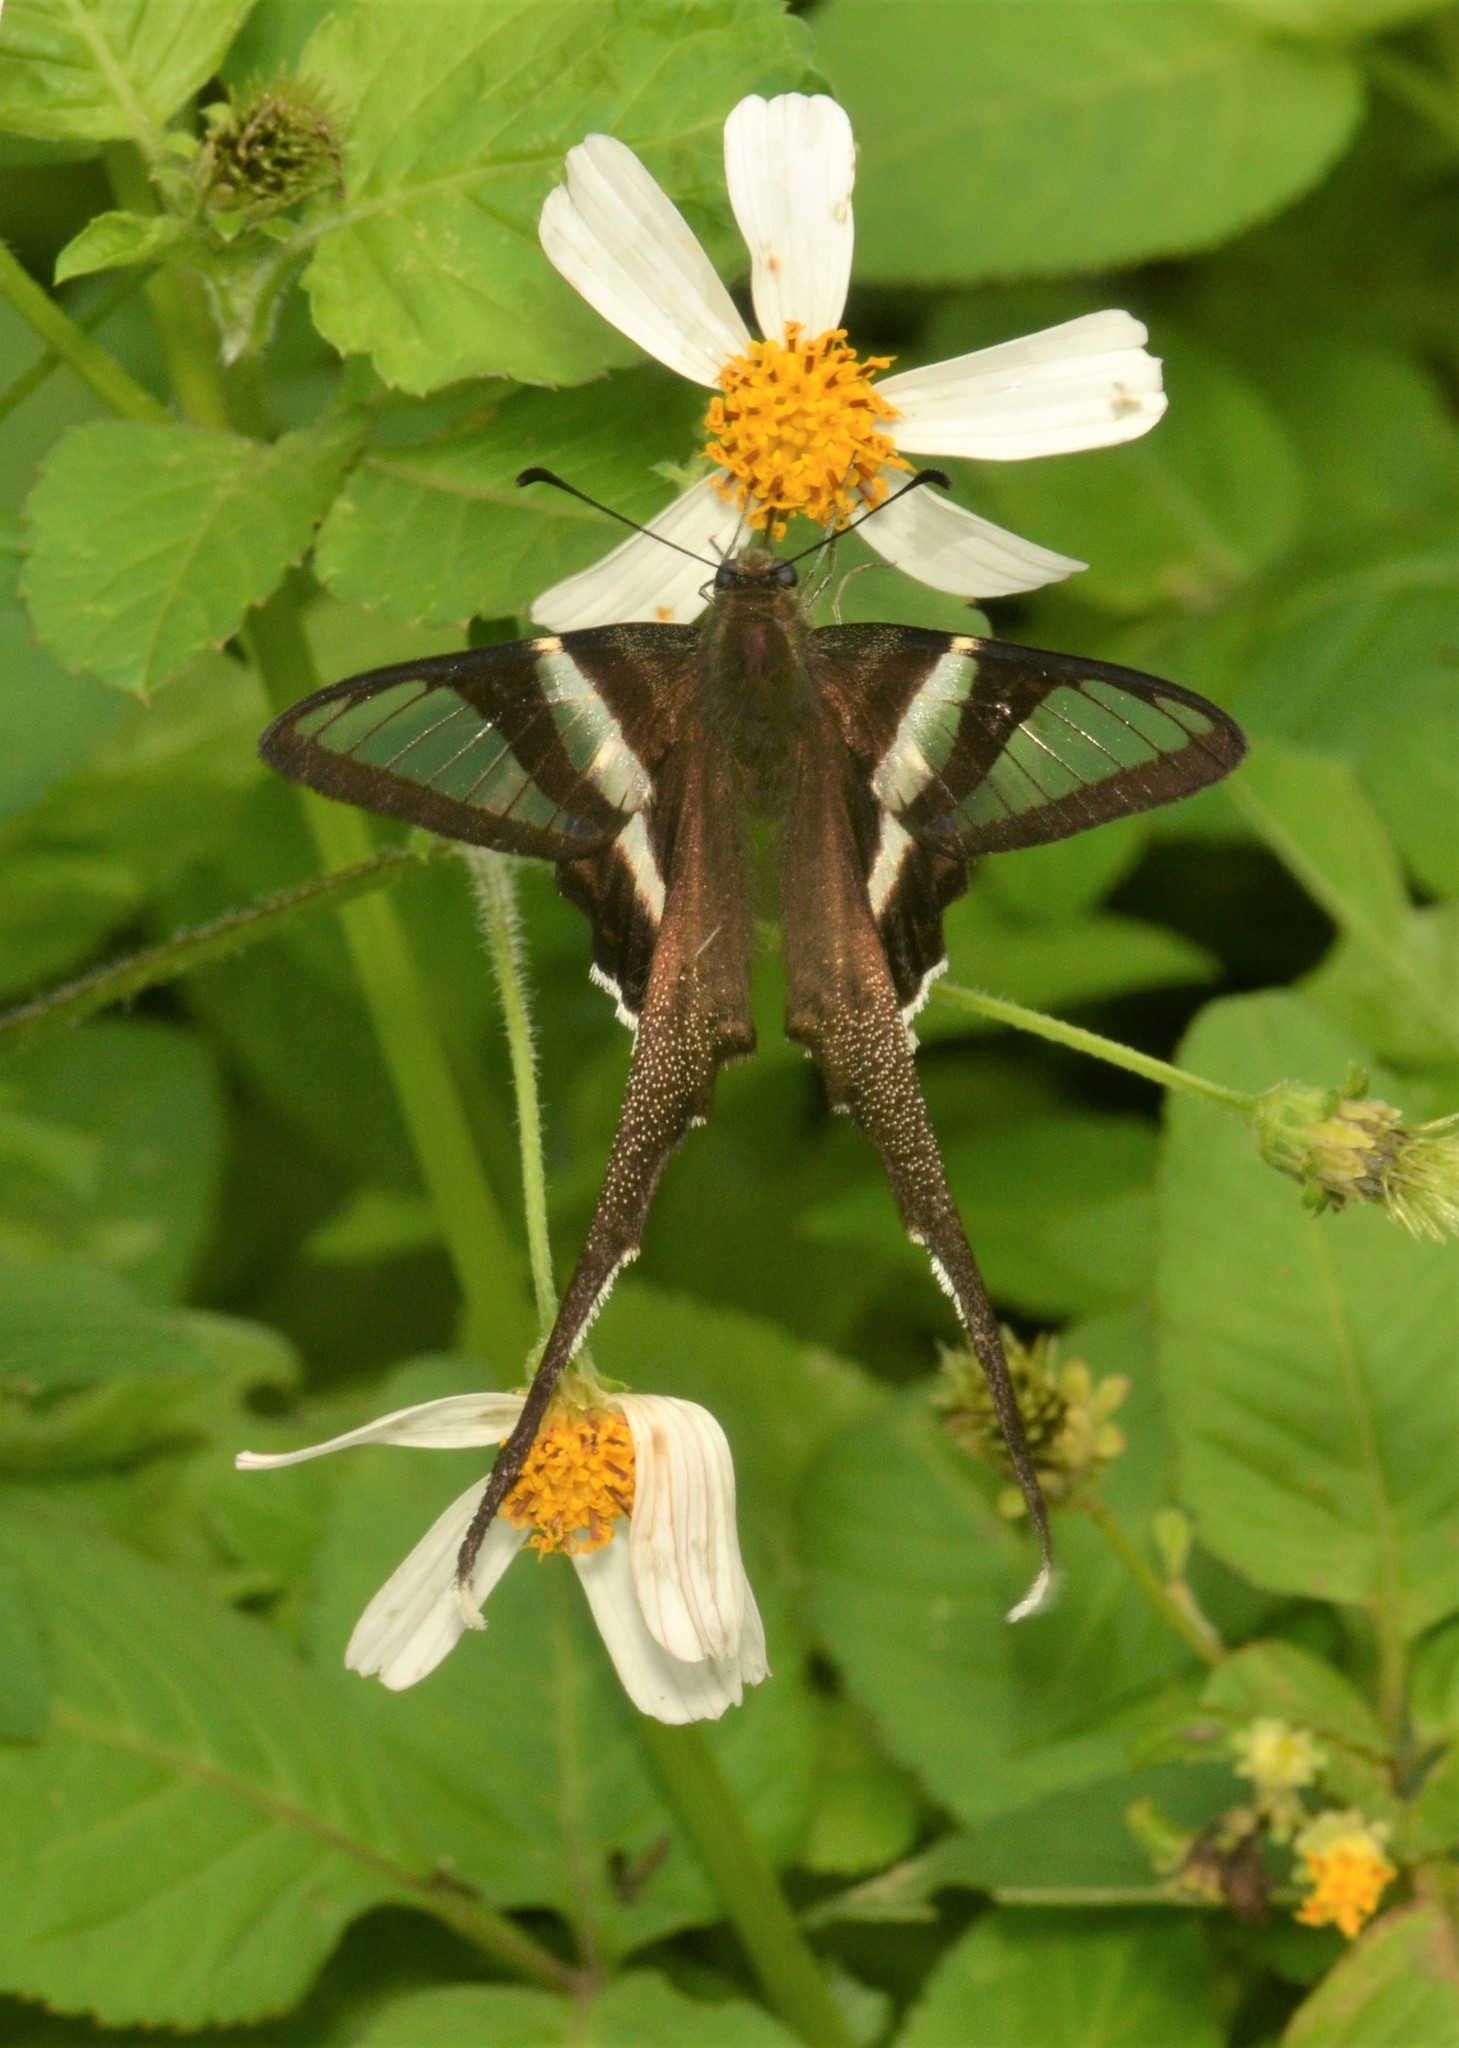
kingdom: Animalia
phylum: Arthropoda
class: Insecta
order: Lepidoptera
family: Papilionidae
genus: Lamproptera
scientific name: Lamproptera curius
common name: White dragontail
